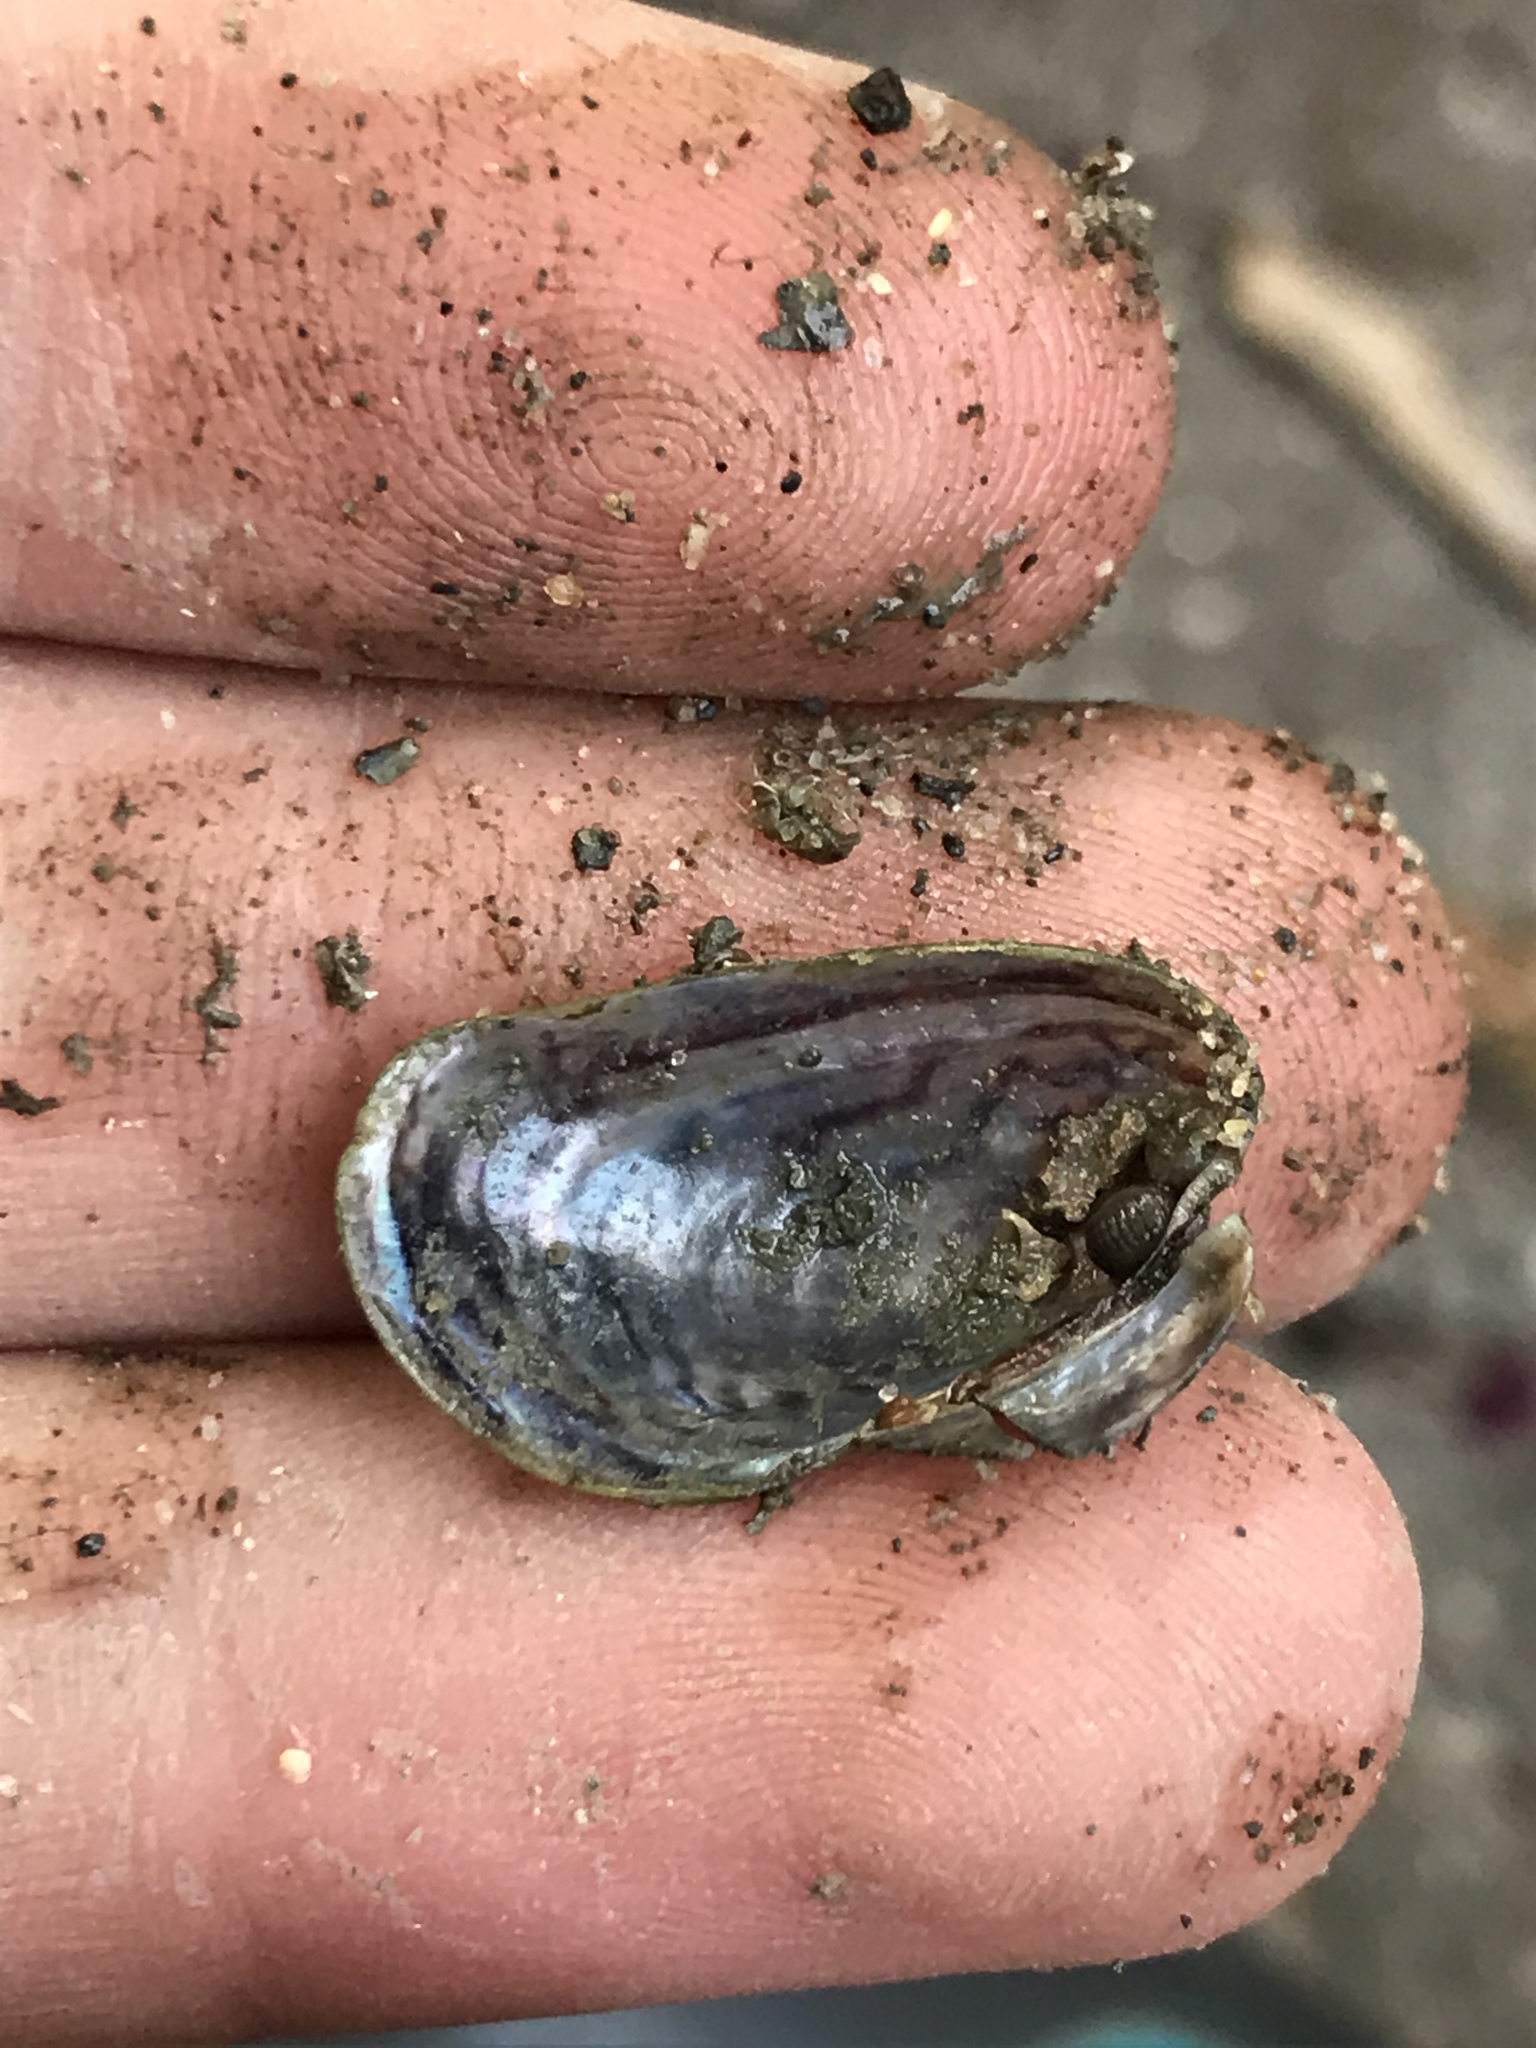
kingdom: Animalia
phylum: Mollusca
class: Bivalvia
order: Mytilida
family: Mytilidae
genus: Arcuatula
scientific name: Arcuatula senhousia
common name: Asian mussel
